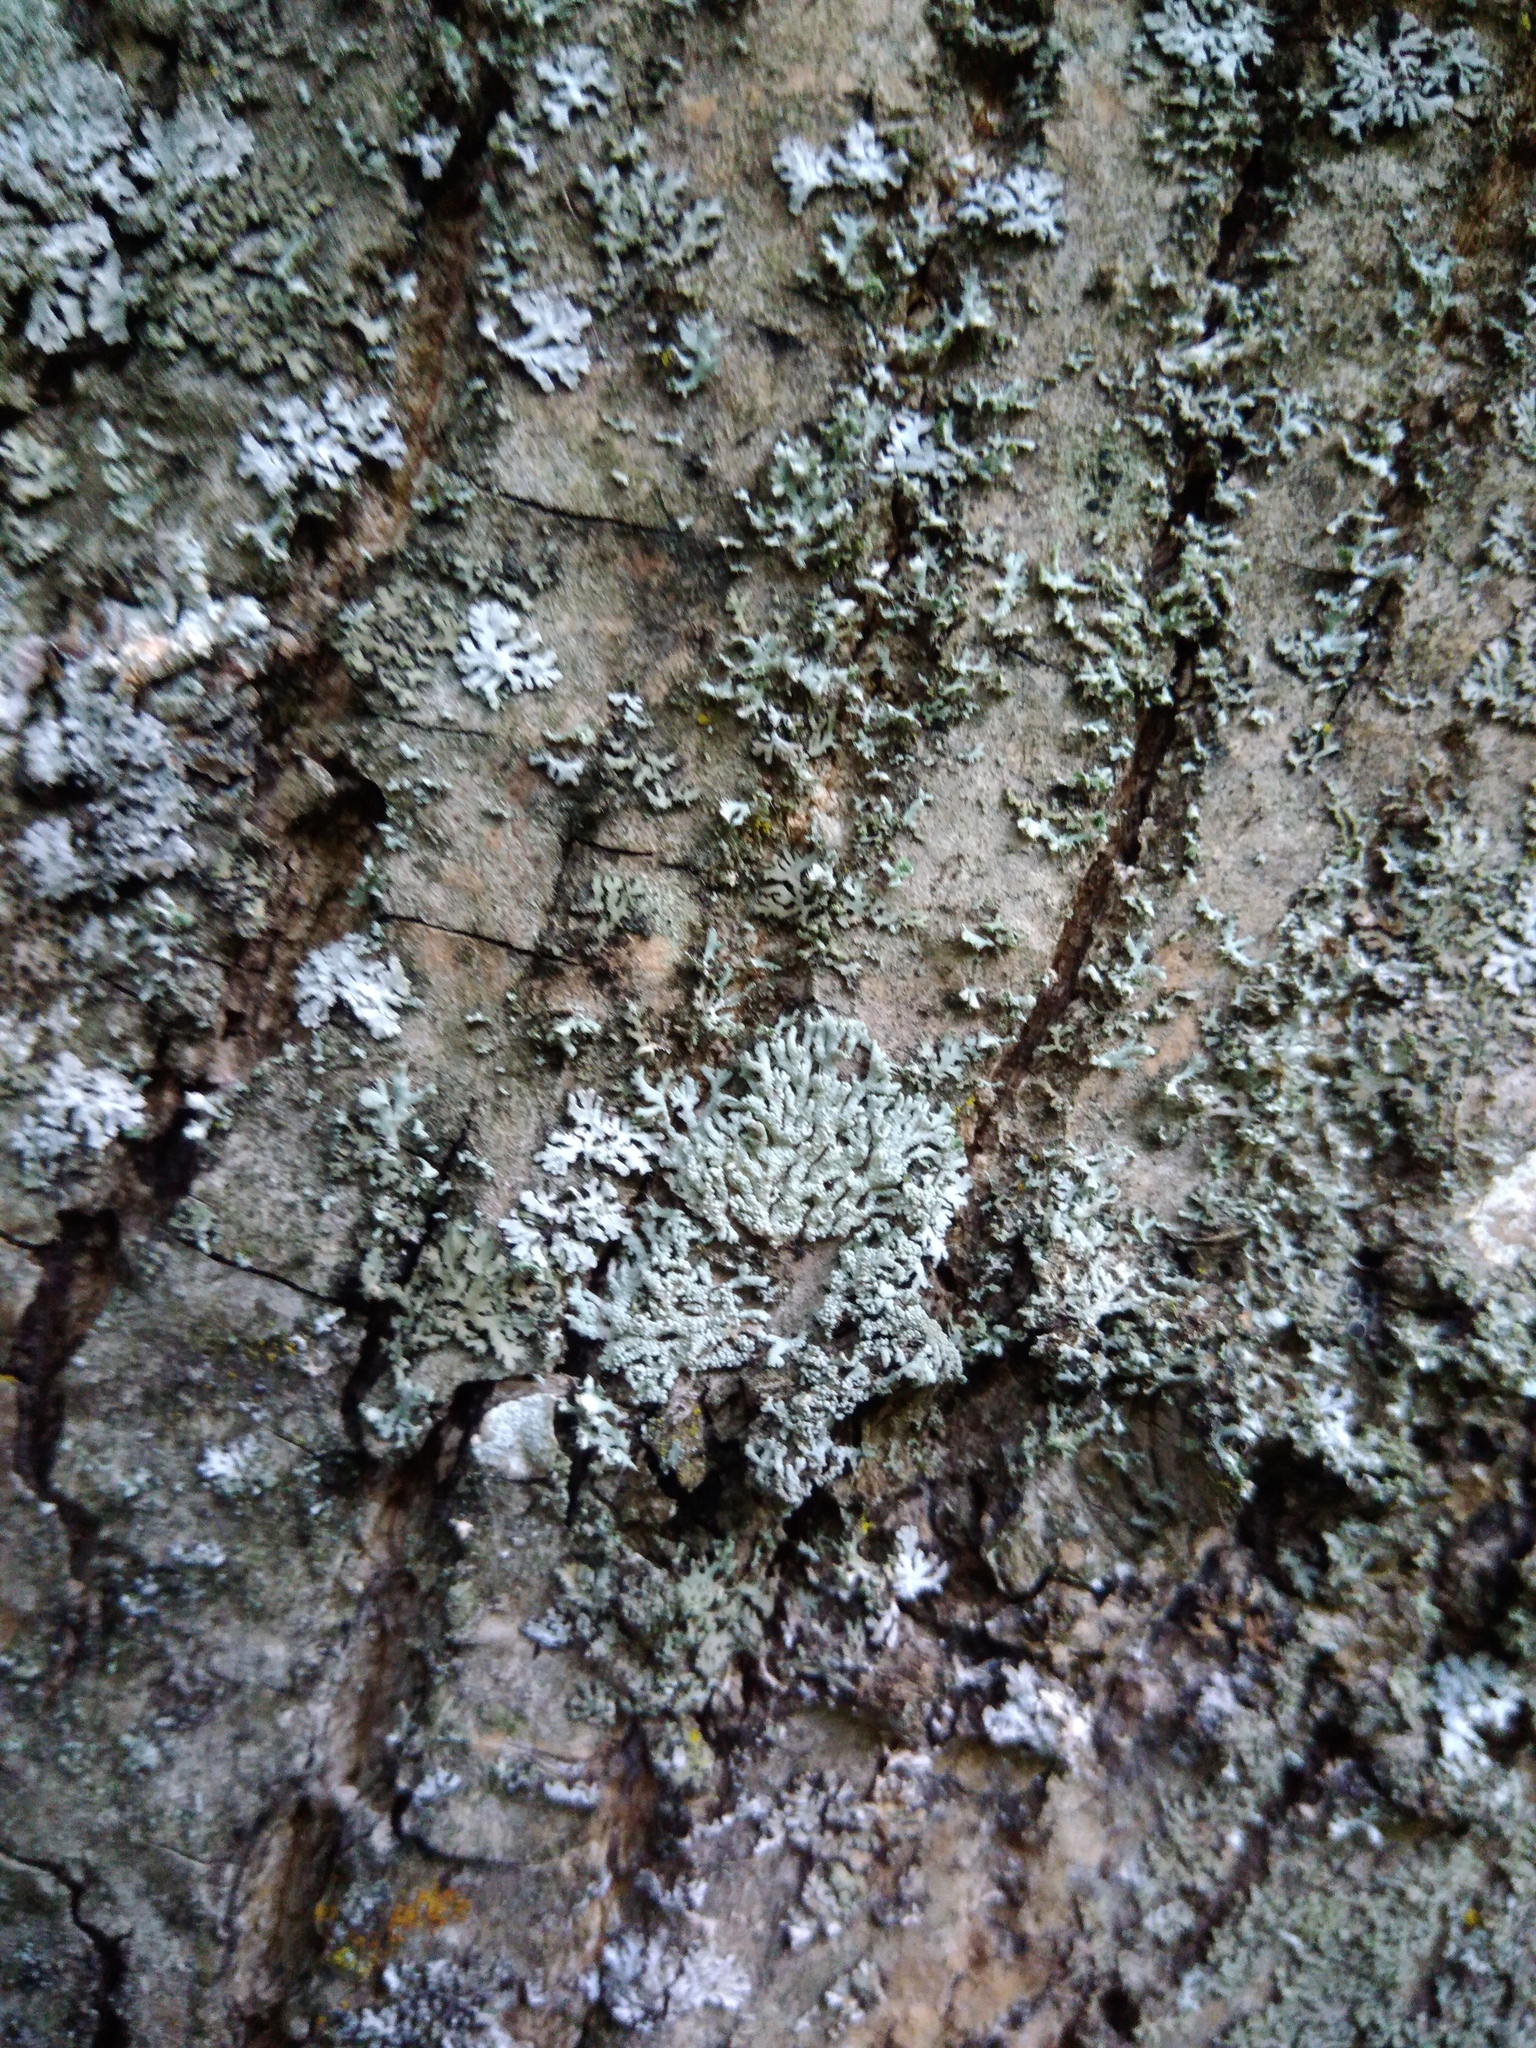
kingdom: Fungi
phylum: Ascomycota
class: Lecanoromycetes
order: Caliciales
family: Physciaceae
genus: Physcia
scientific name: Physcia stellaris
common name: Star rosette lichen
